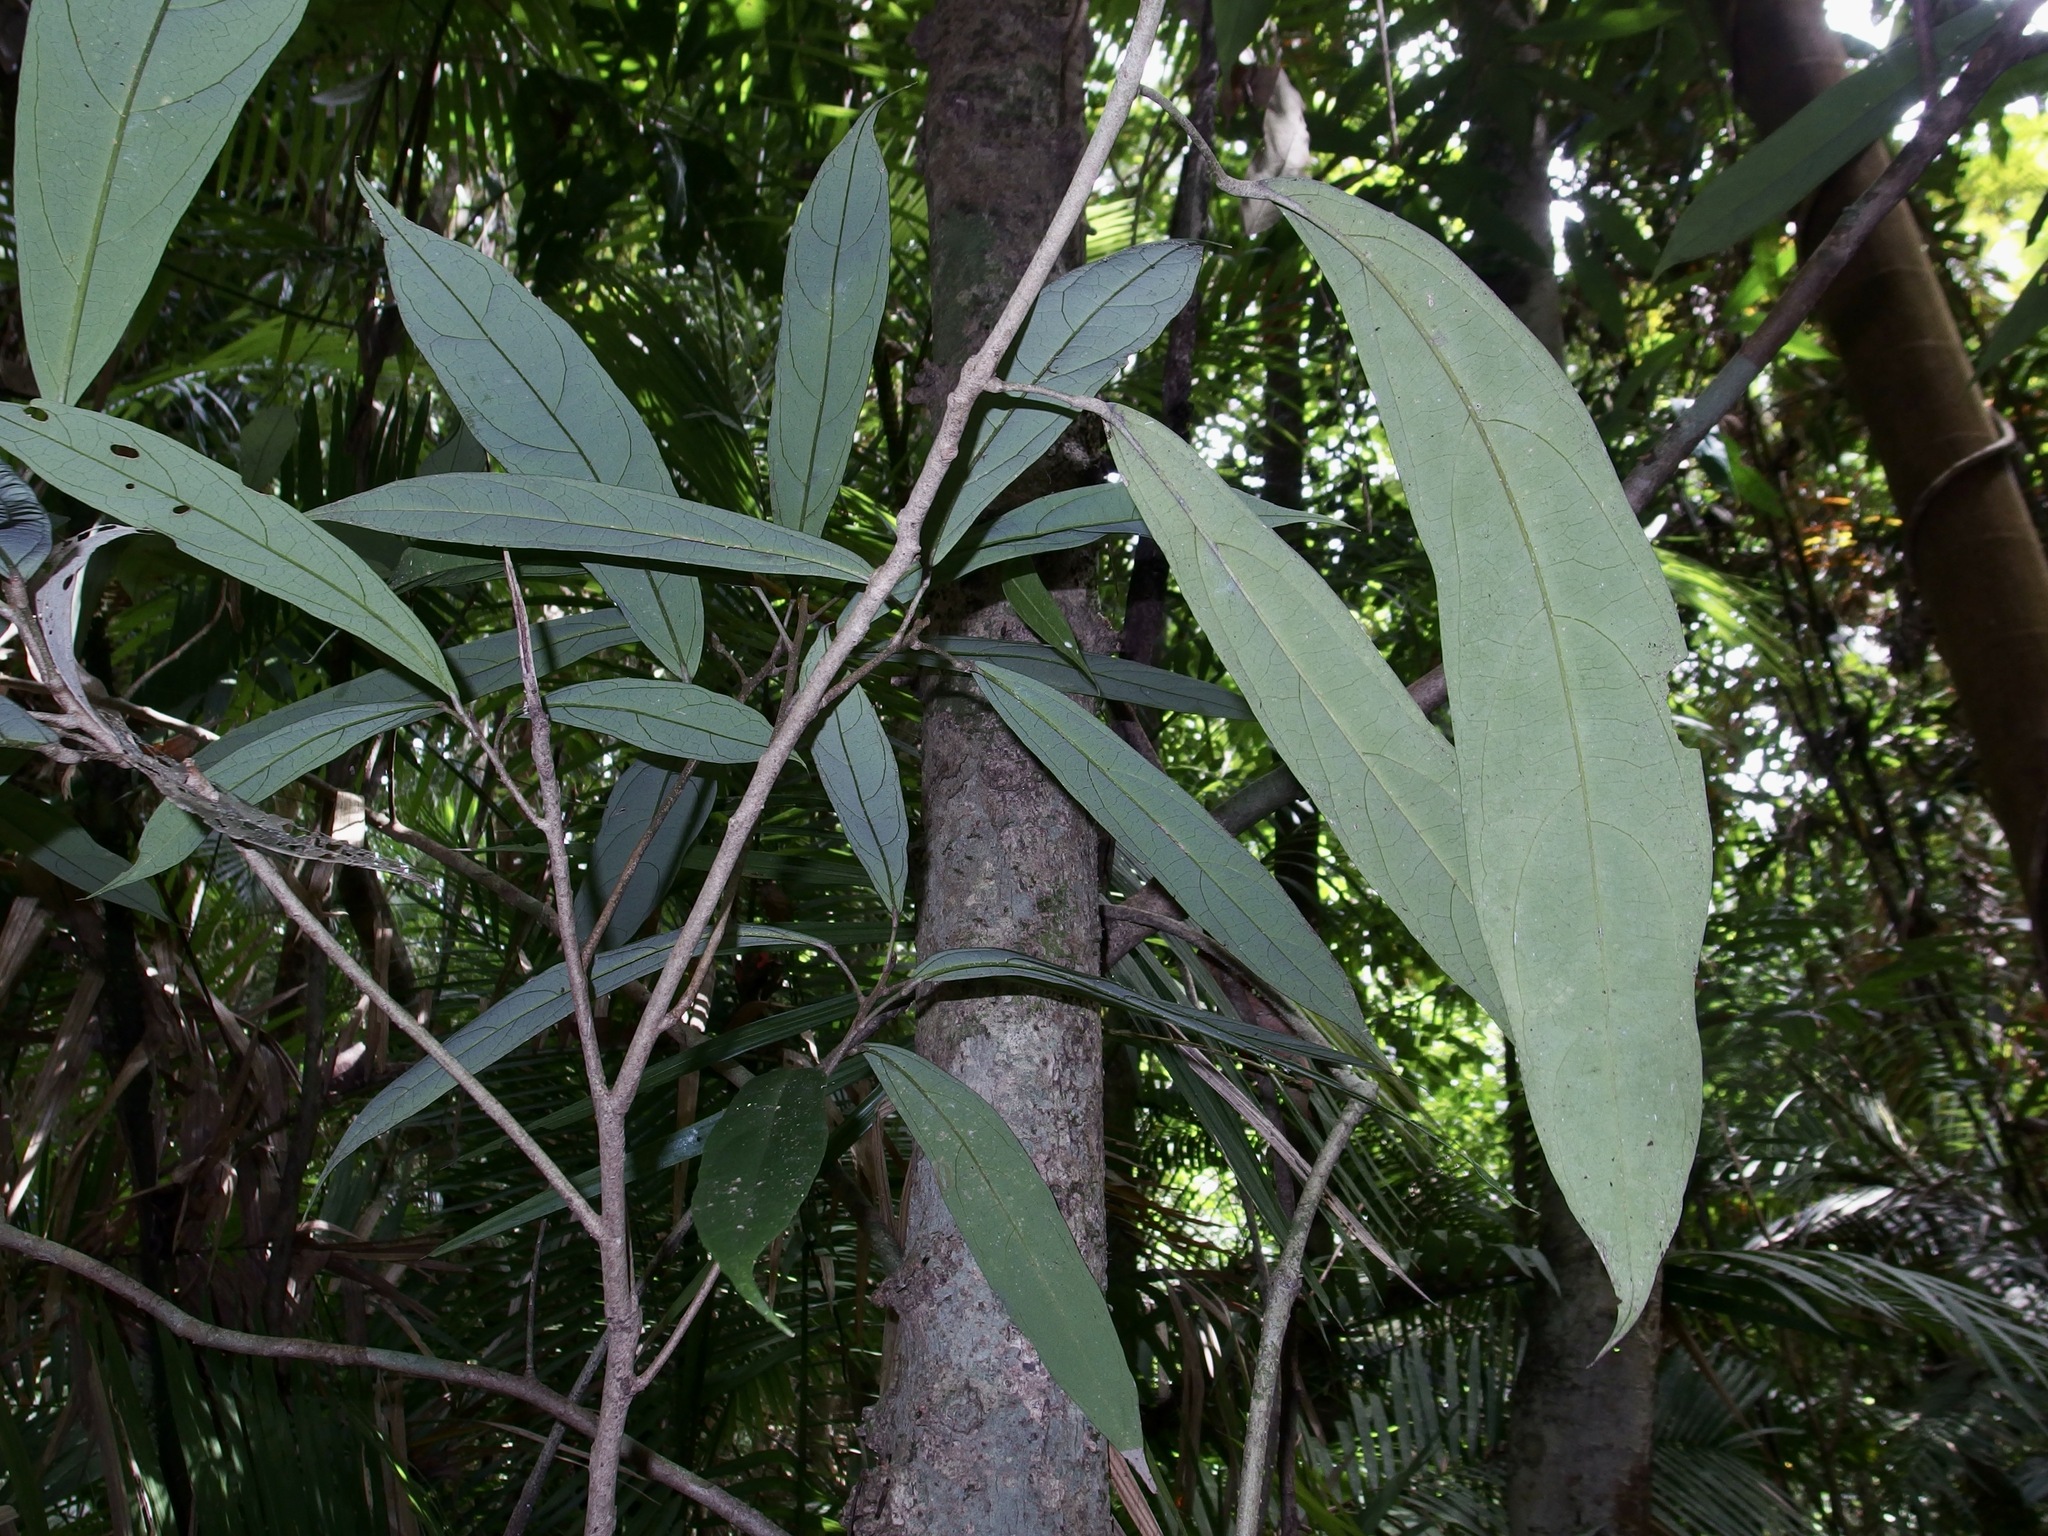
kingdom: Plantae
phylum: Tracheophyta
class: Magnoliopsida
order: Malpighiales
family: Achariaceae
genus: Ryparosa
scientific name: Ryparosa kurrangii
